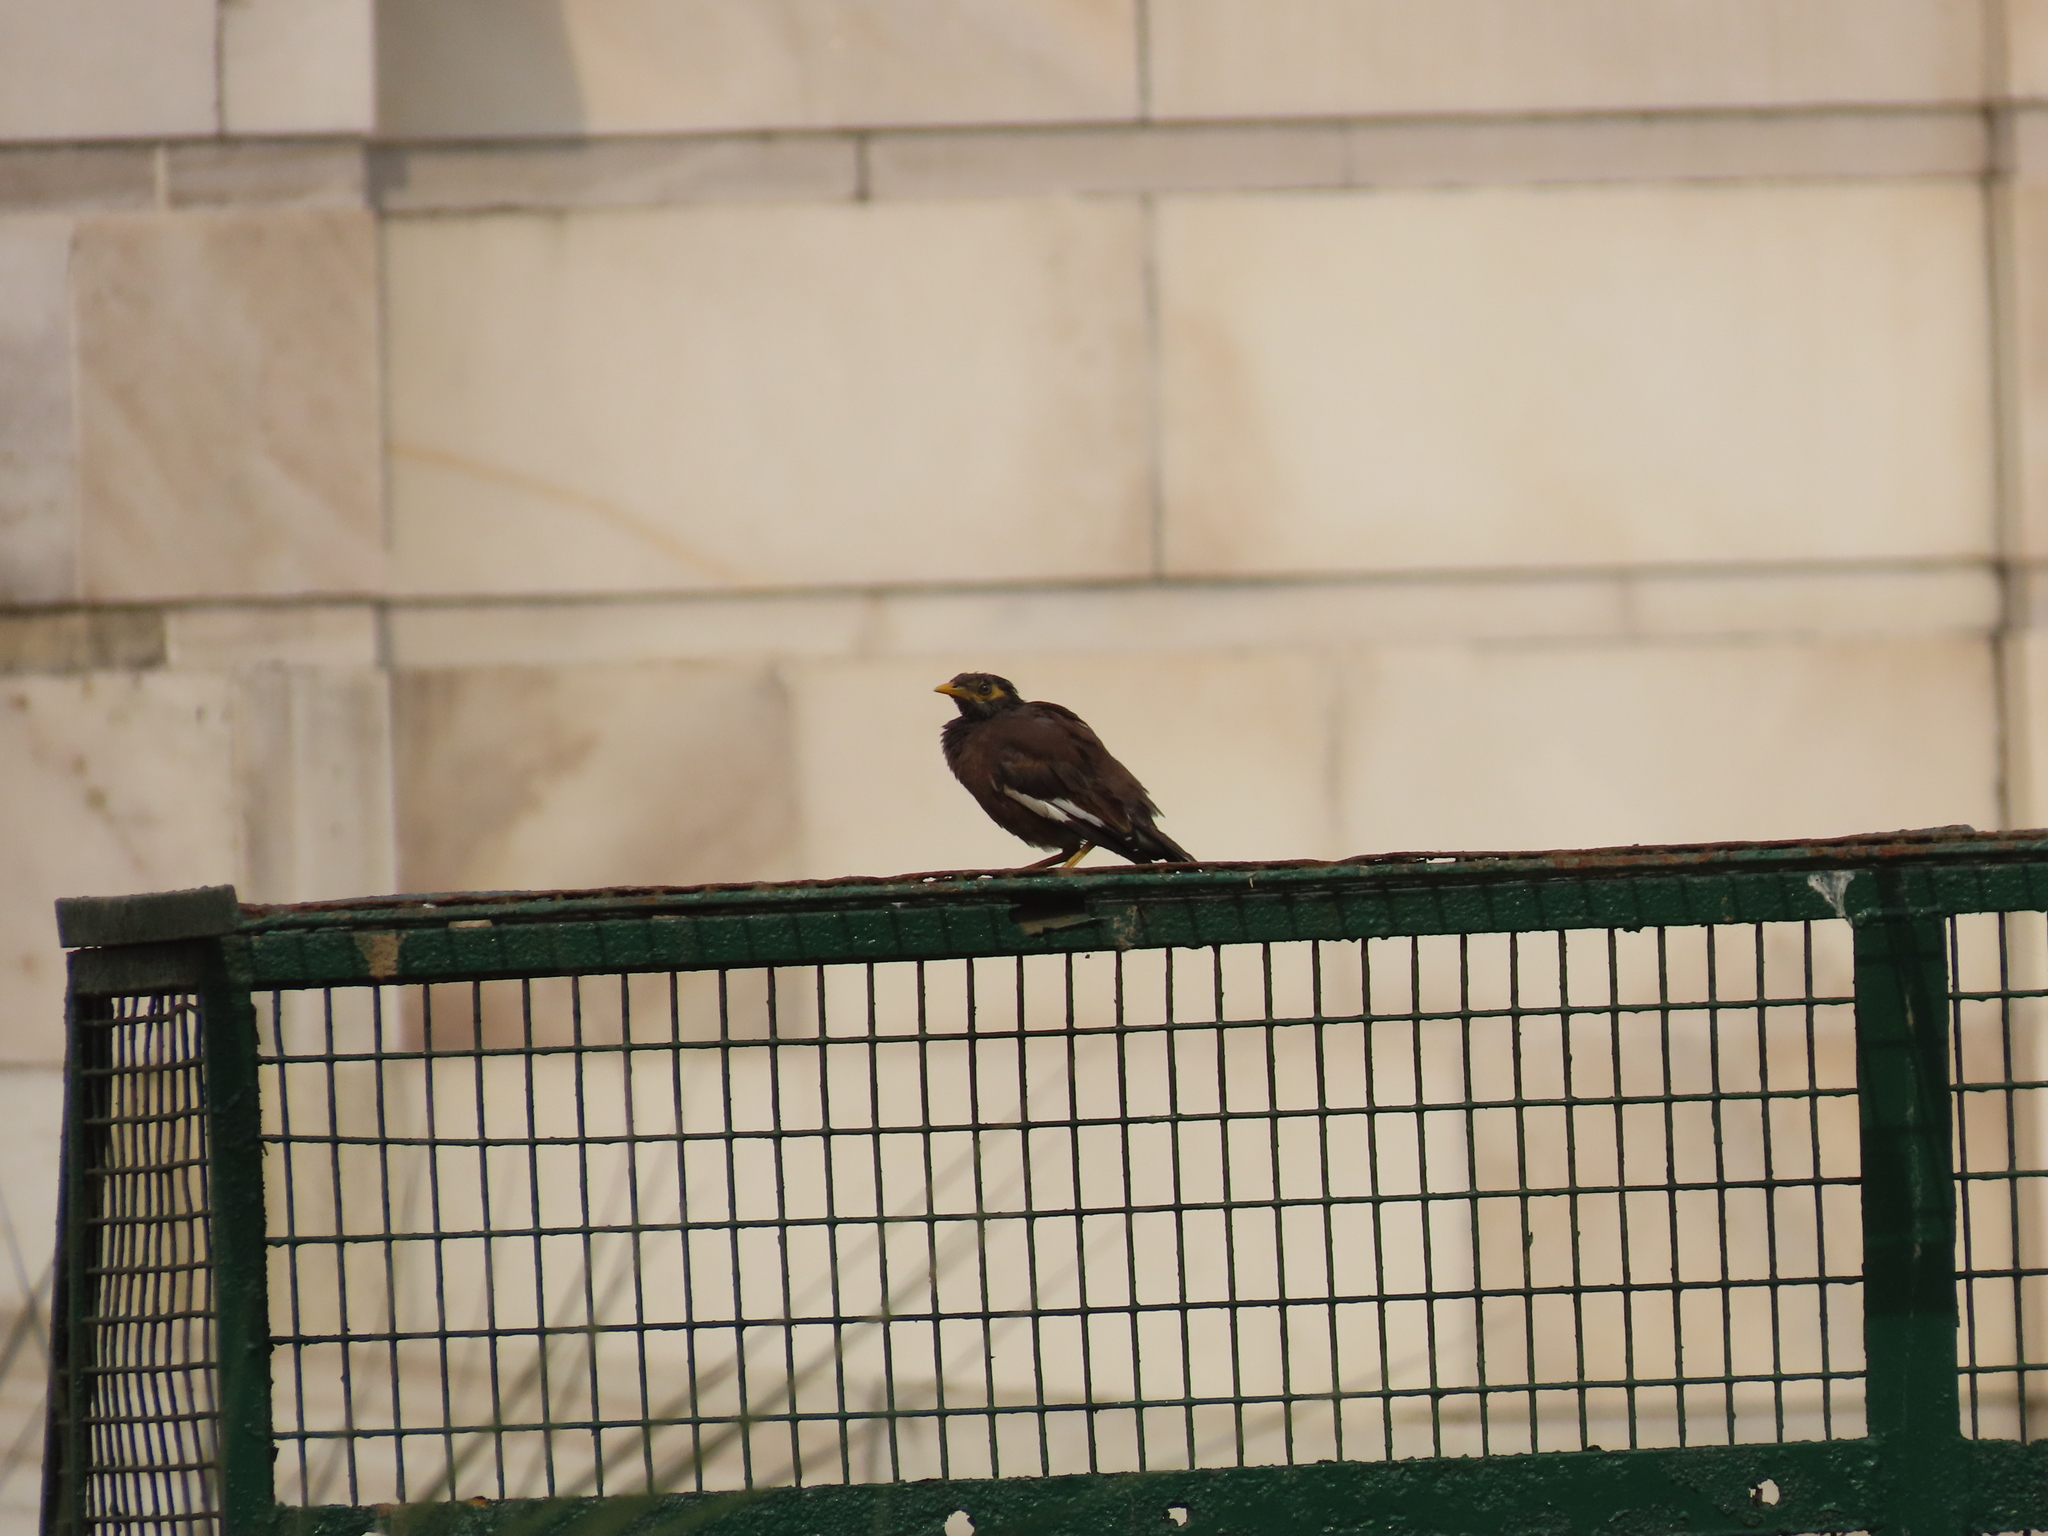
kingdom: Animalia
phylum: Chordata
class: Aves
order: Passeriformes
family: Sturnidae
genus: Acridotheres
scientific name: Acridotheres tristis
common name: Common myna
